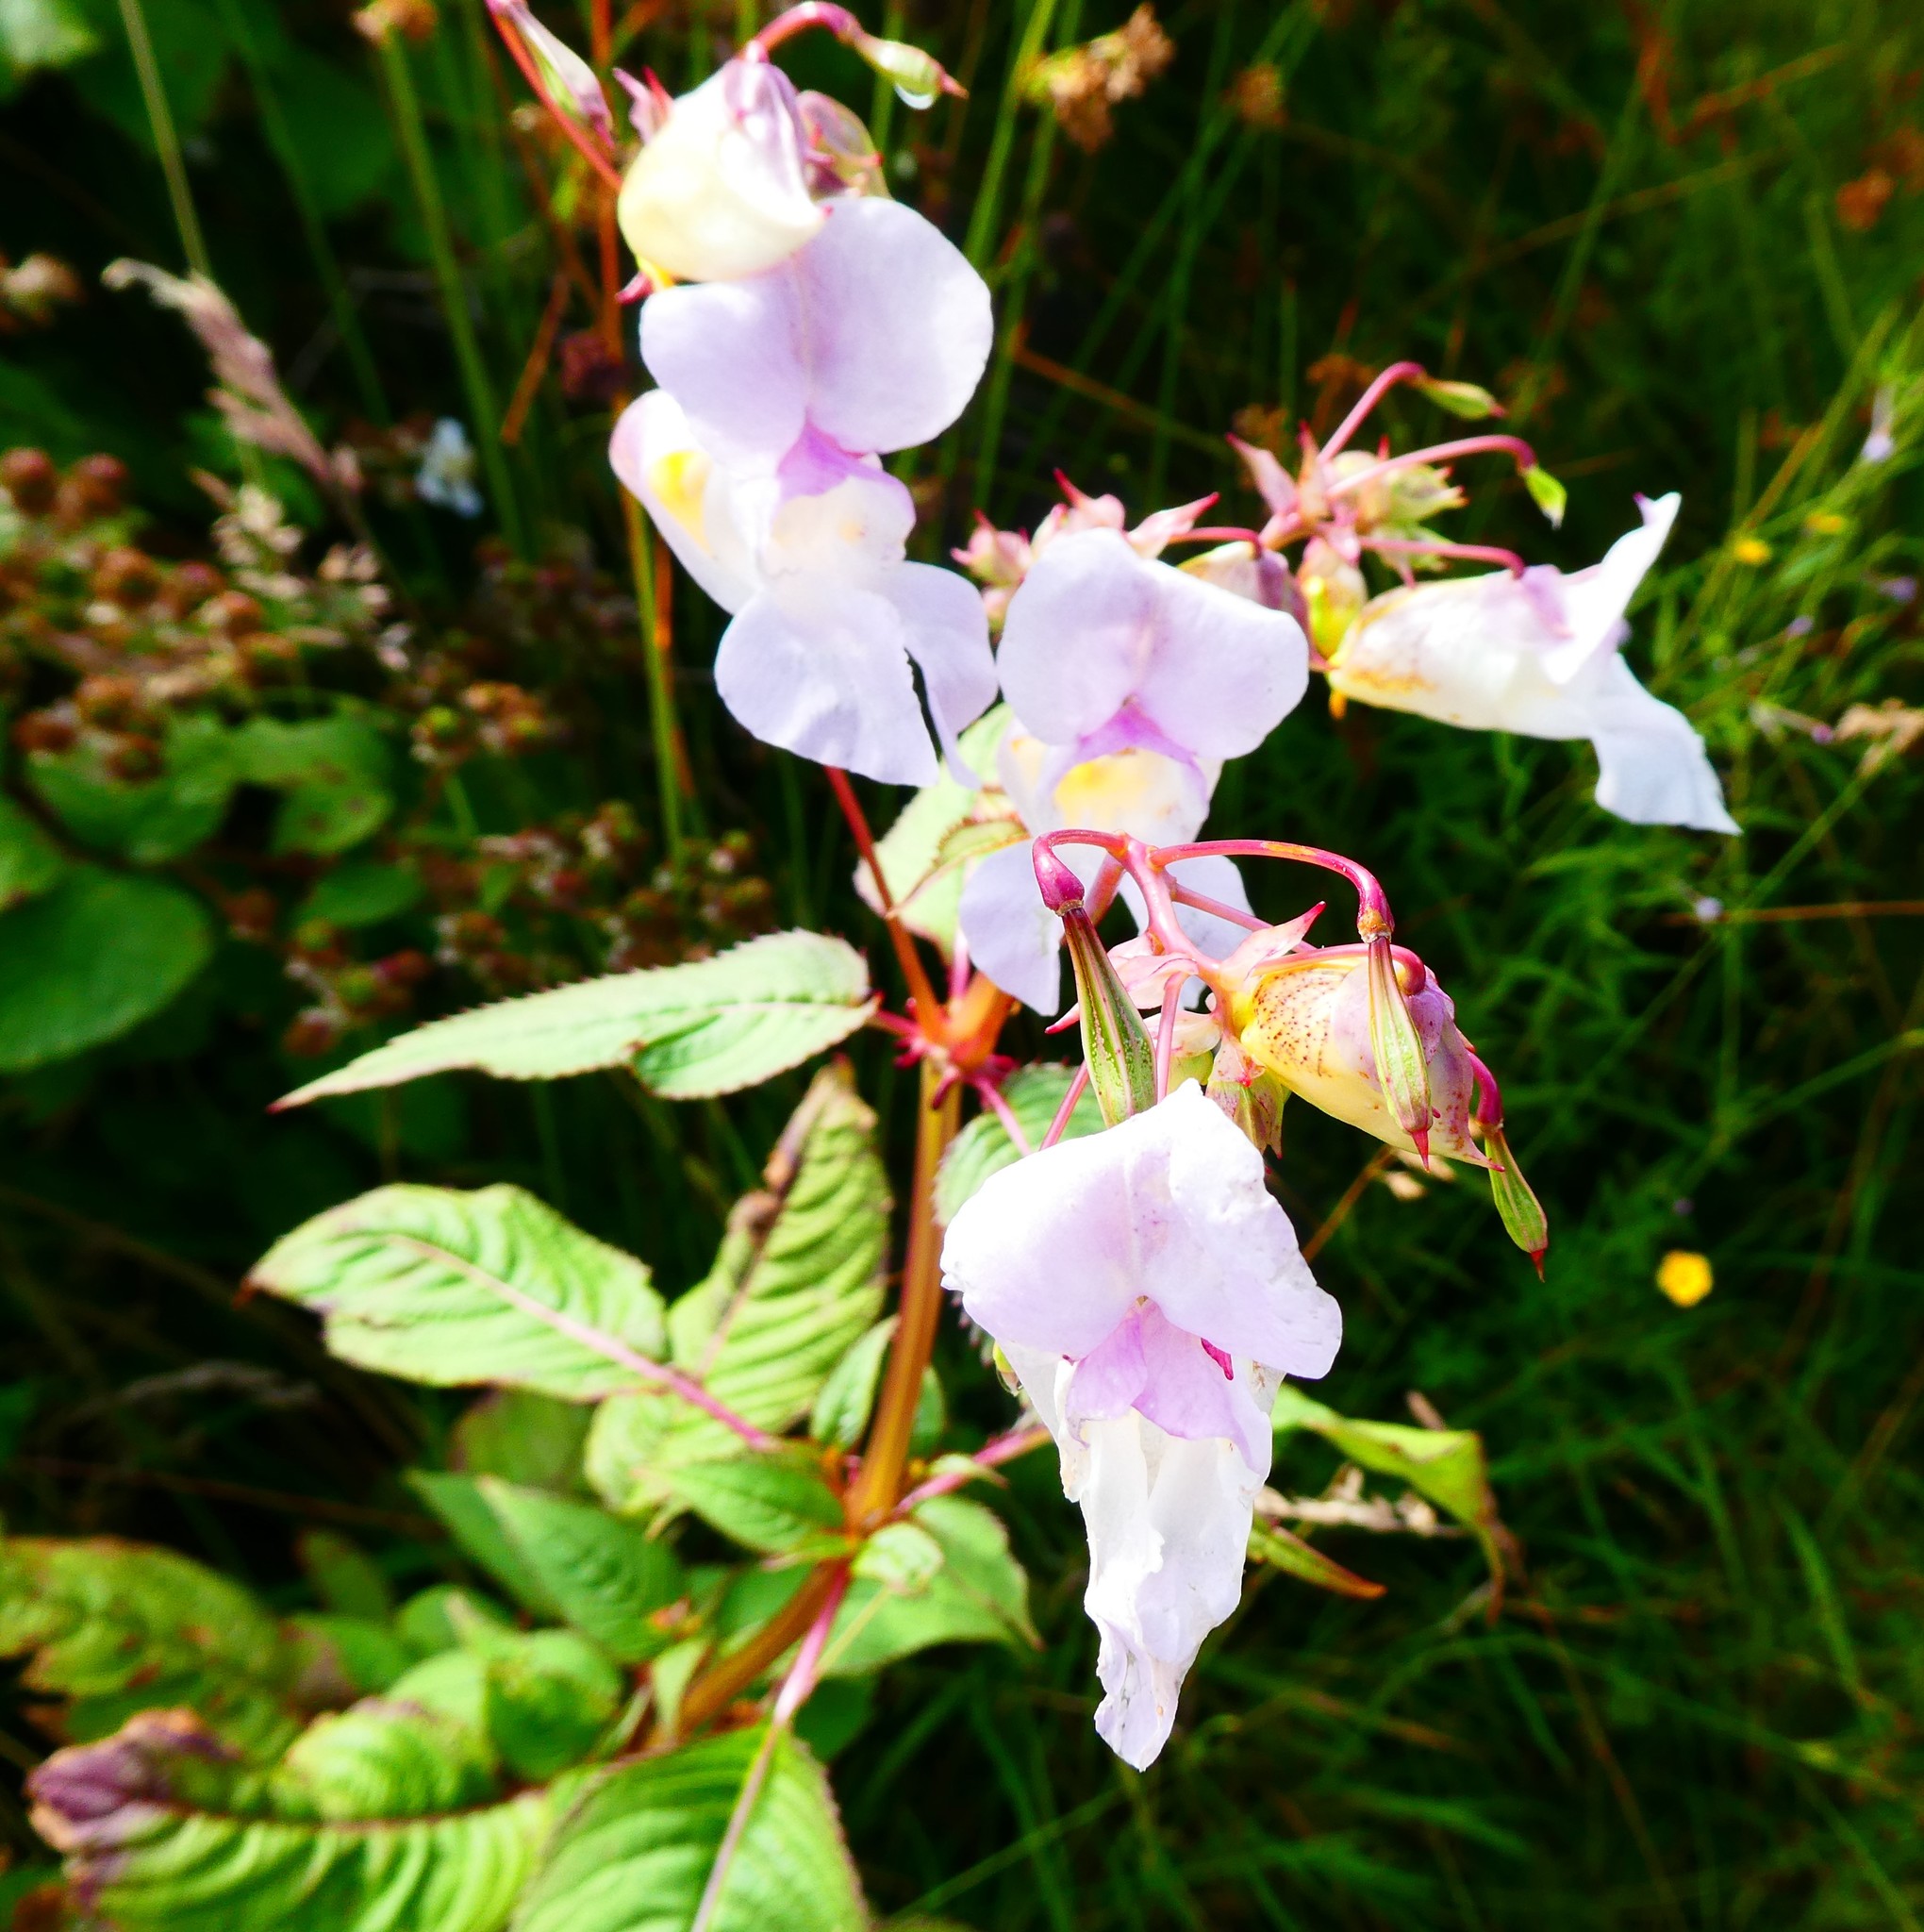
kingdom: Plantae
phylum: Tracheophyta
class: Magnoliopsida
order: Ericales
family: Balsaminaceae
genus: Impatiens
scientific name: Impatiens glandulifera
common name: Himalayan balsam
